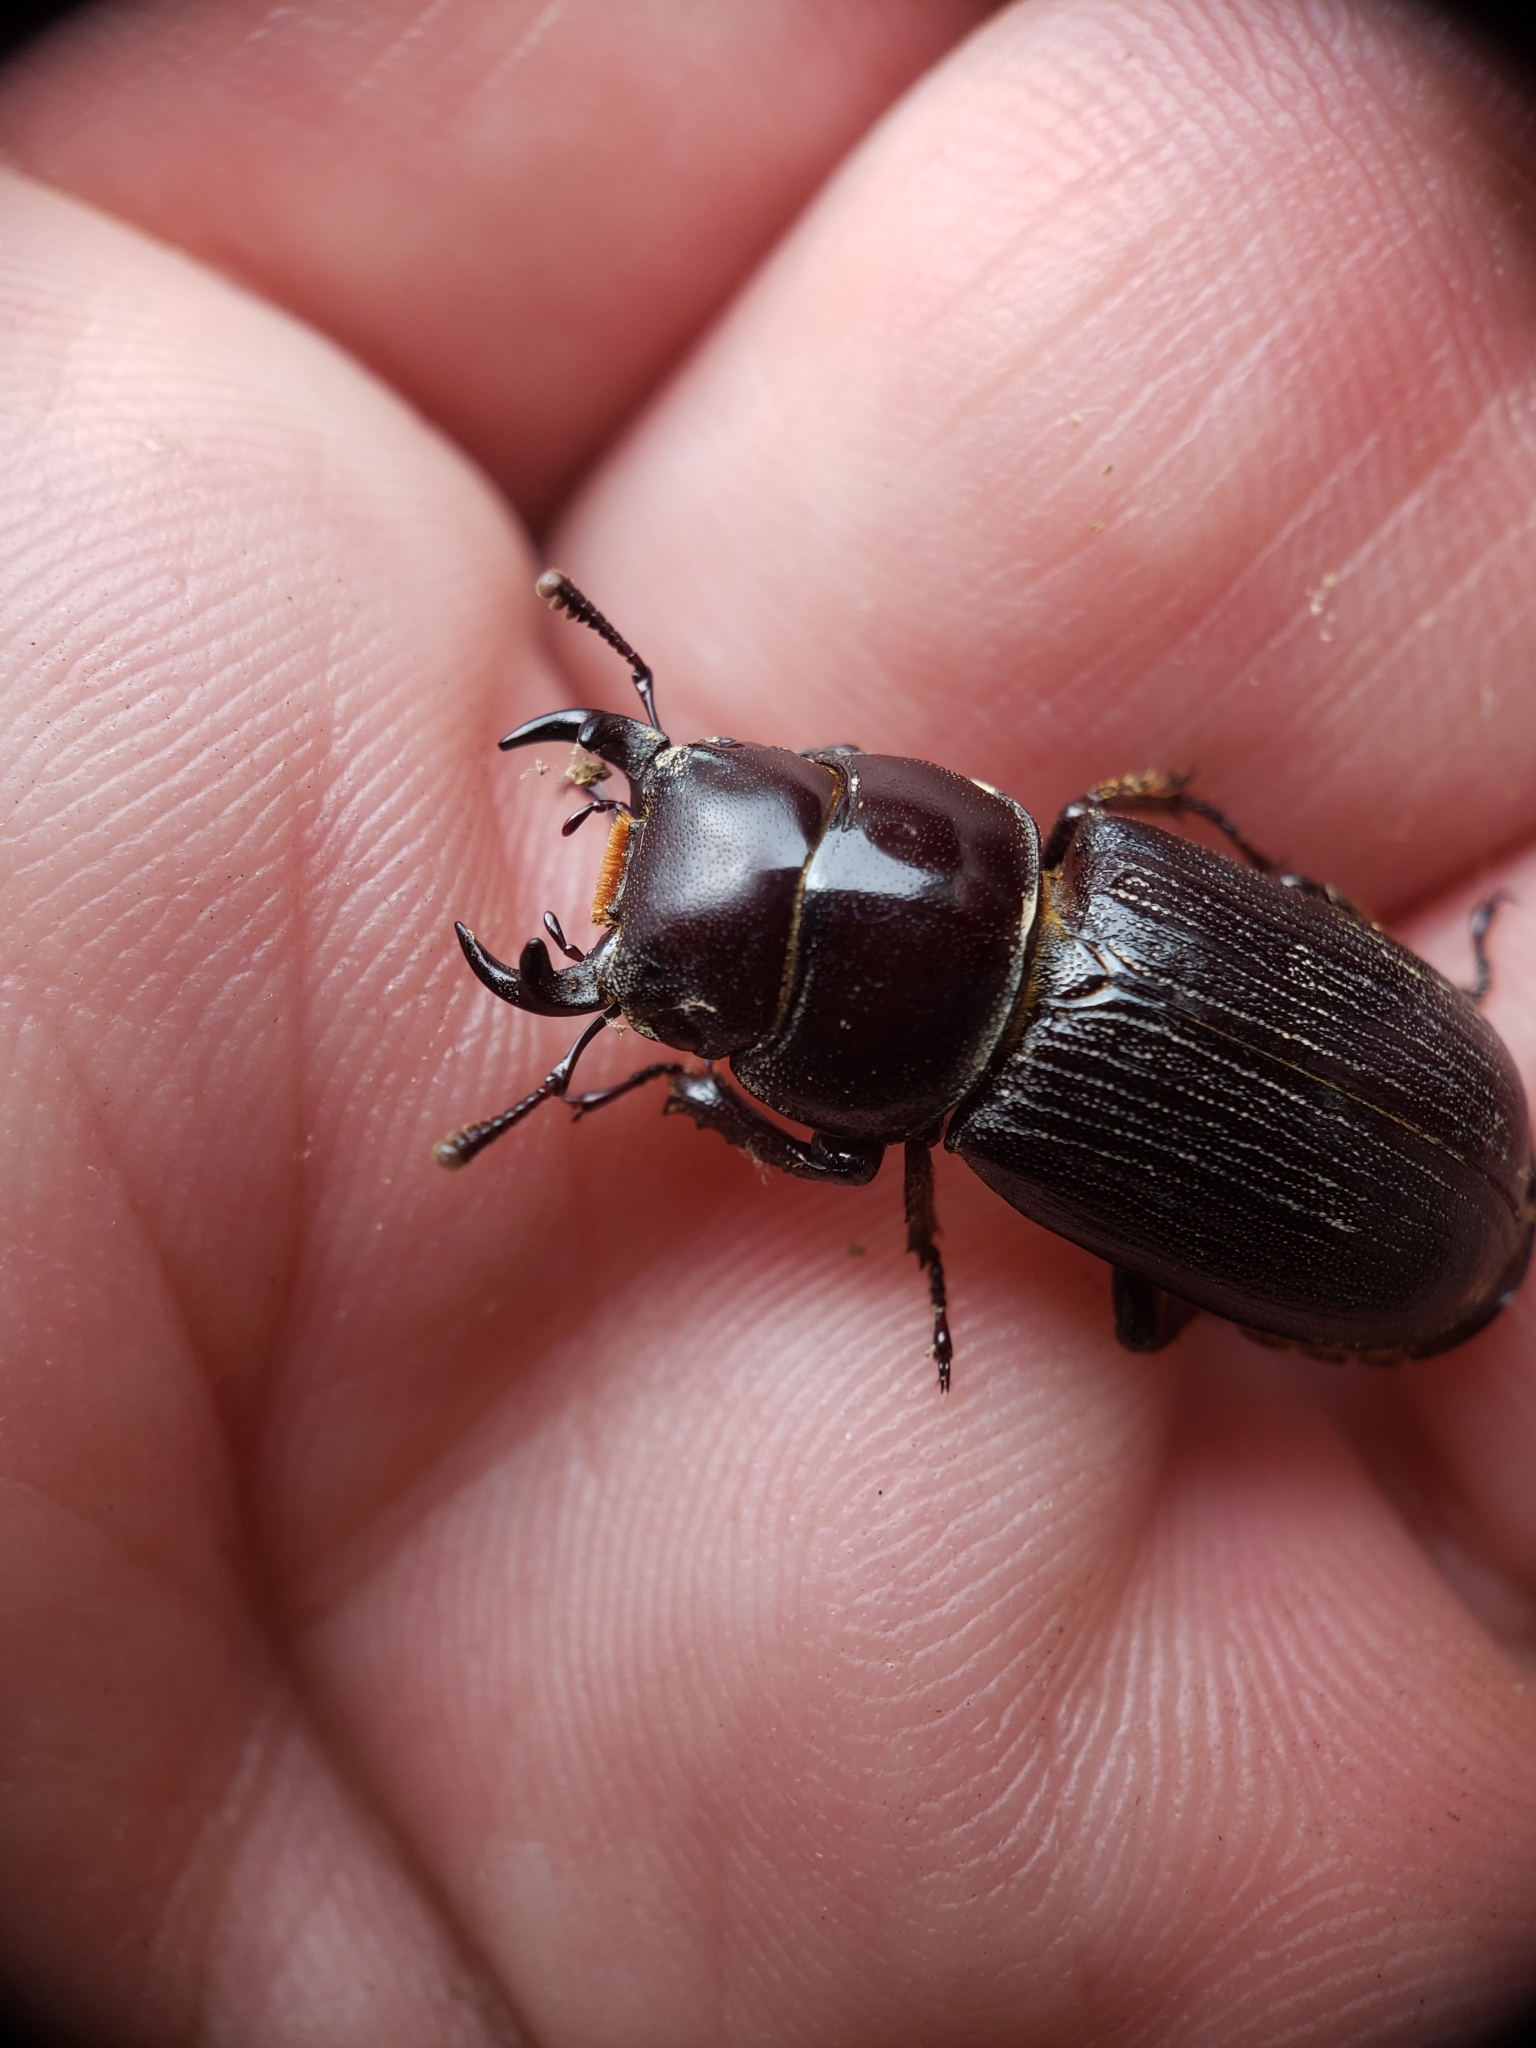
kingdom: Animalia
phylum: Arthropoda
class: Insecta
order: Coleoptera
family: Lucanidae
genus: Dorcus
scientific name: Dorcus parallelus
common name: Antelope beetle
